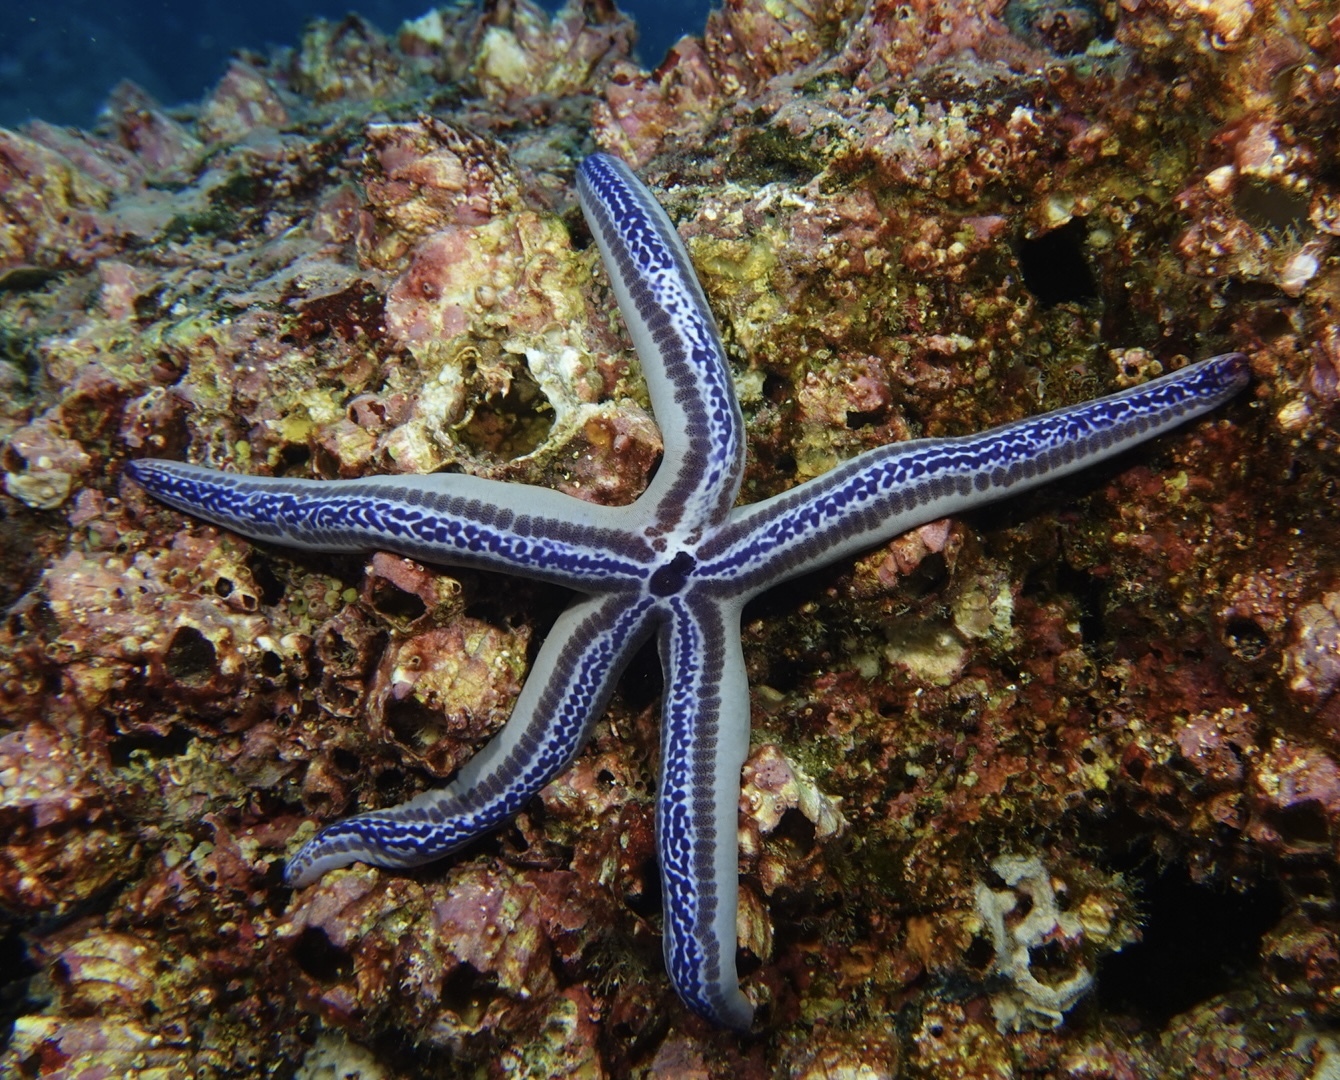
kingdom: Animalia
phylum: Echinodermata
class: Asteroidea
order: Valvatida
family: Ophidiasteridae
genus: Phataria
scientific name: Phataria unifascialis
